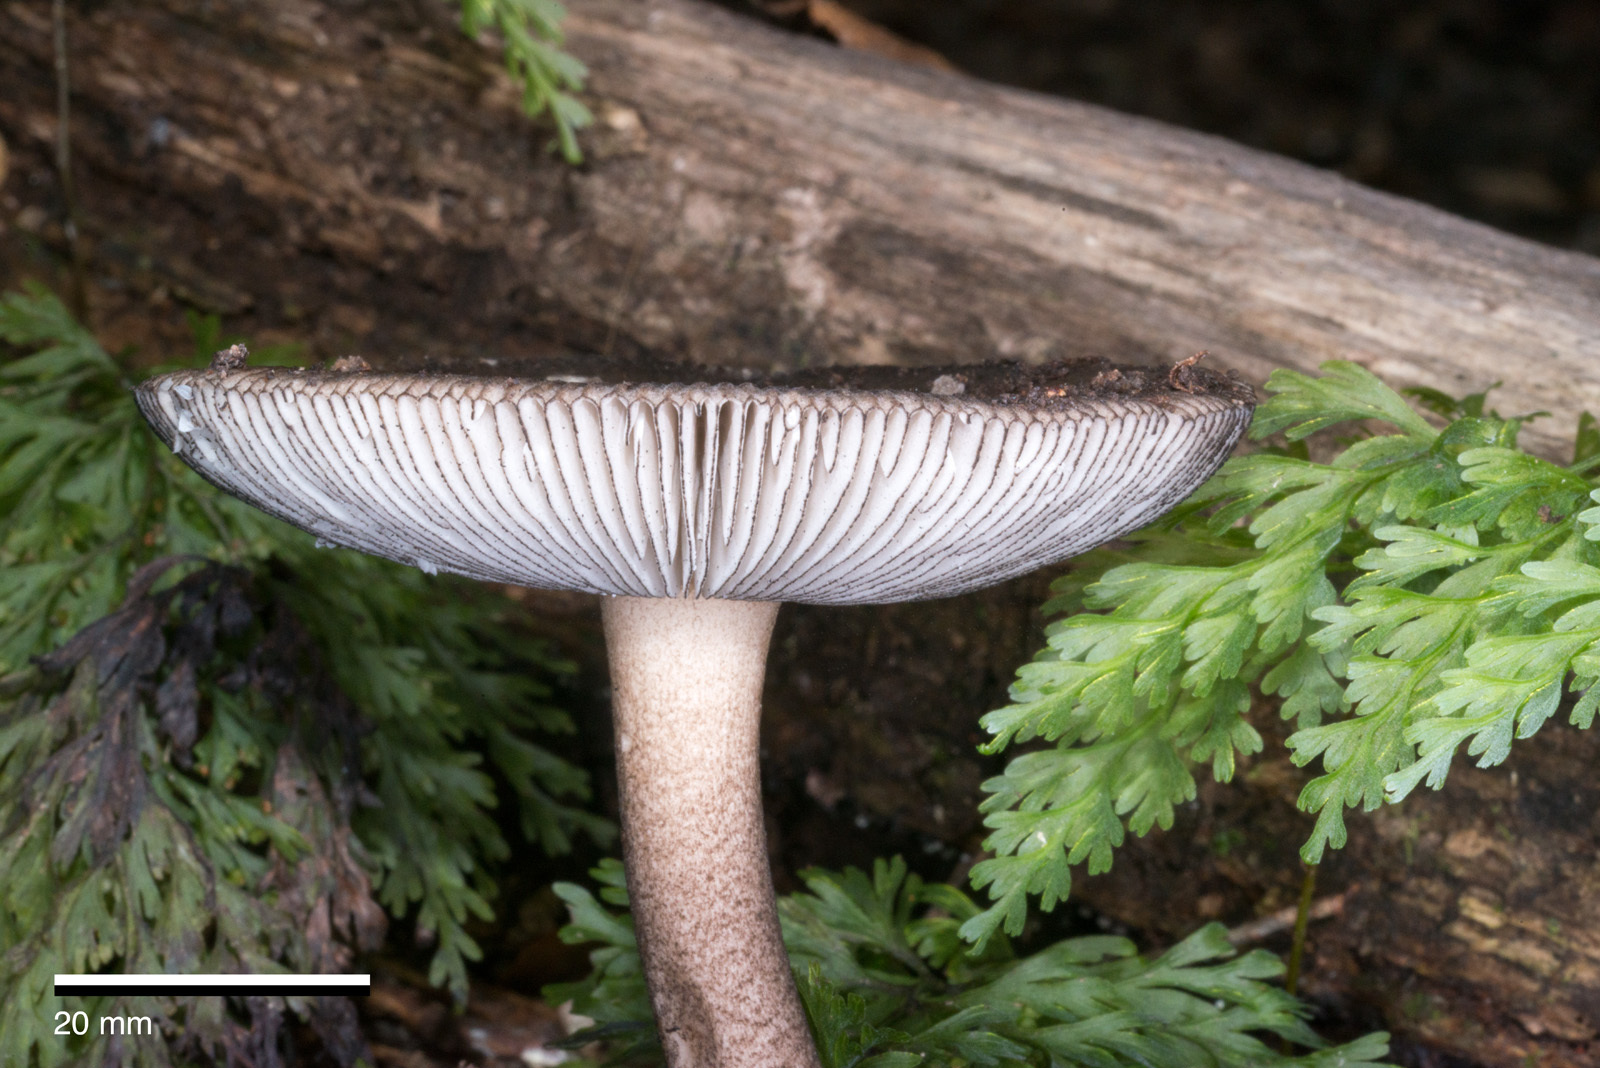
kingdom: Fungi
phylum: Basidiomycota
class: Agaricomycetes
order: Agaricales
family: Amanitaceae
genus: Amanita
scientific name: Amanita pekeoides
